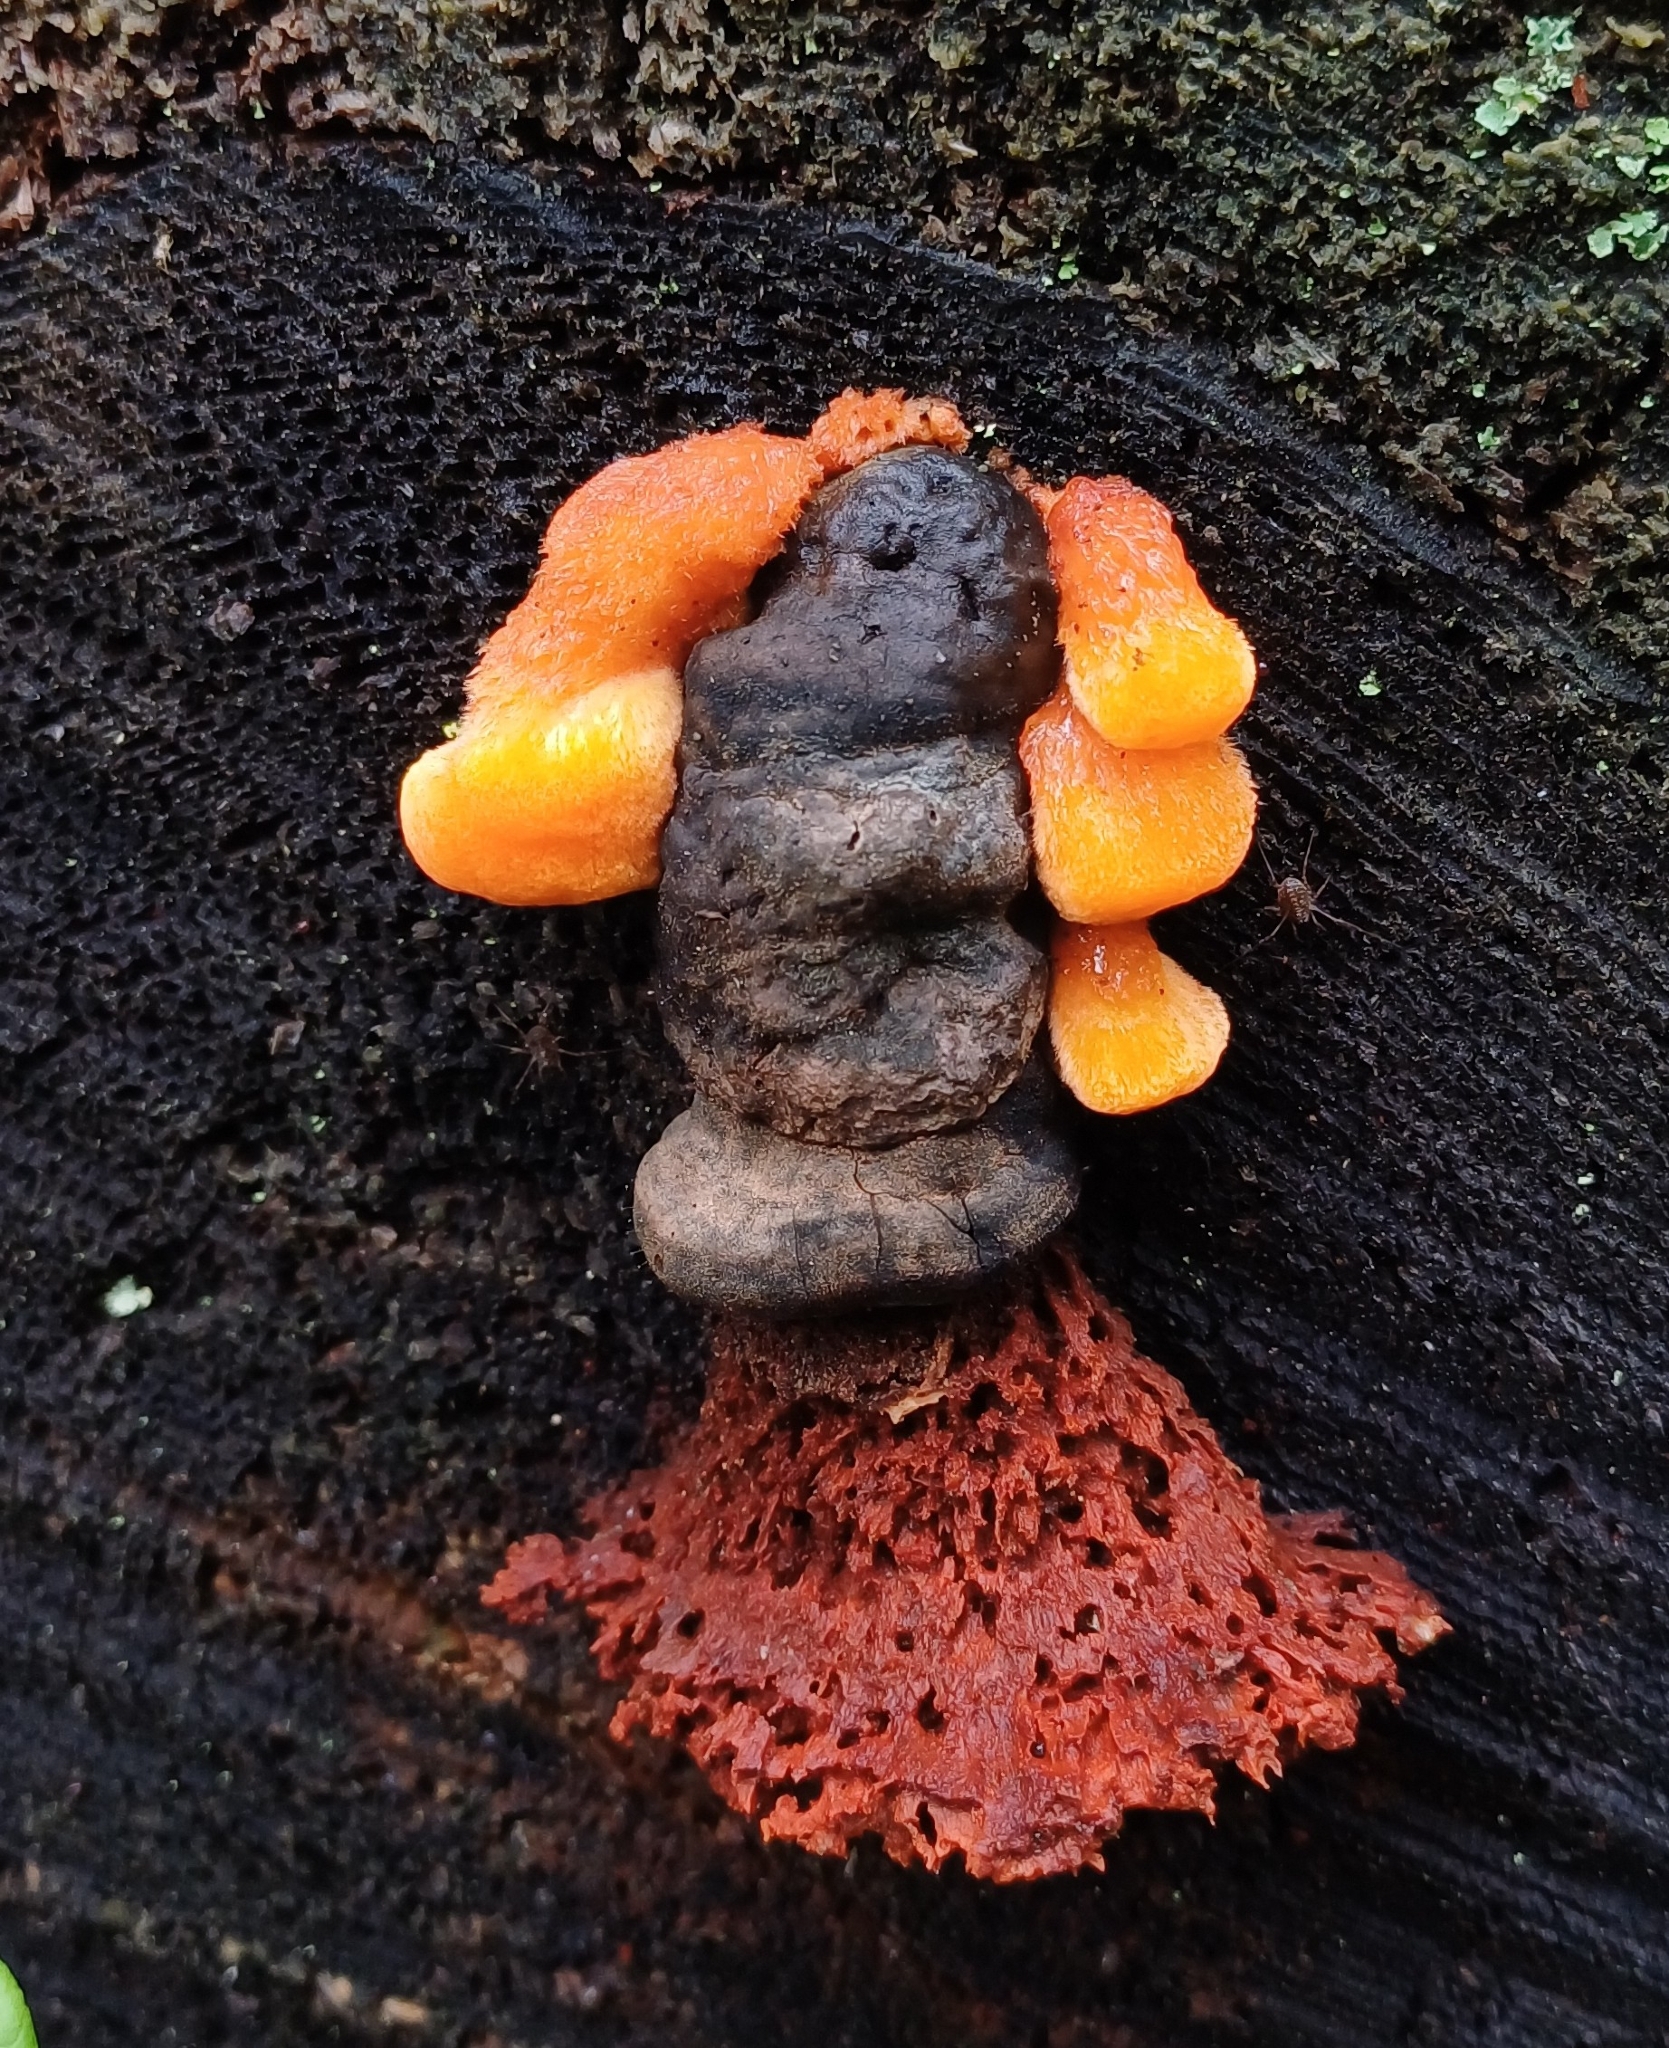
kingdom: Fungi
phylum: Basidiomycota
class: Agaricomycetes
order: Polyporales
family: Pycnoporellaceae
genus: Pycnoporellus
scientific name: Pycnoporellus fulgens
